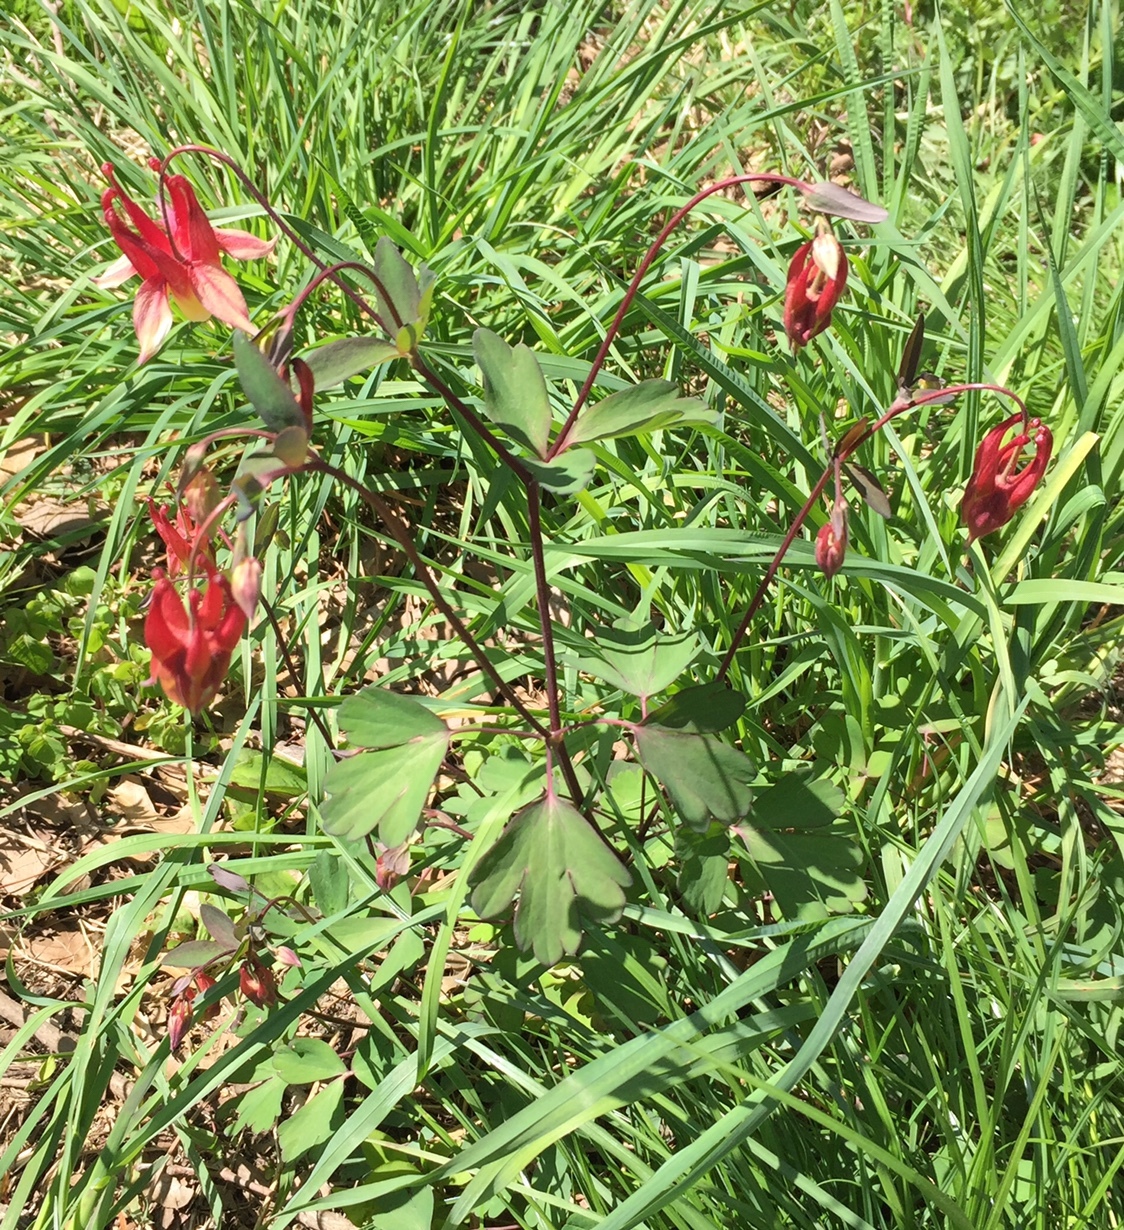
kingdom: Plantae
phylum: Tracheophyta
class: Magnoliopsida
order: Ranunculales
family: Ranunculaceae
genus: Aquilegia
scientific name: Aquilegia canadensis
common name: American columbine
